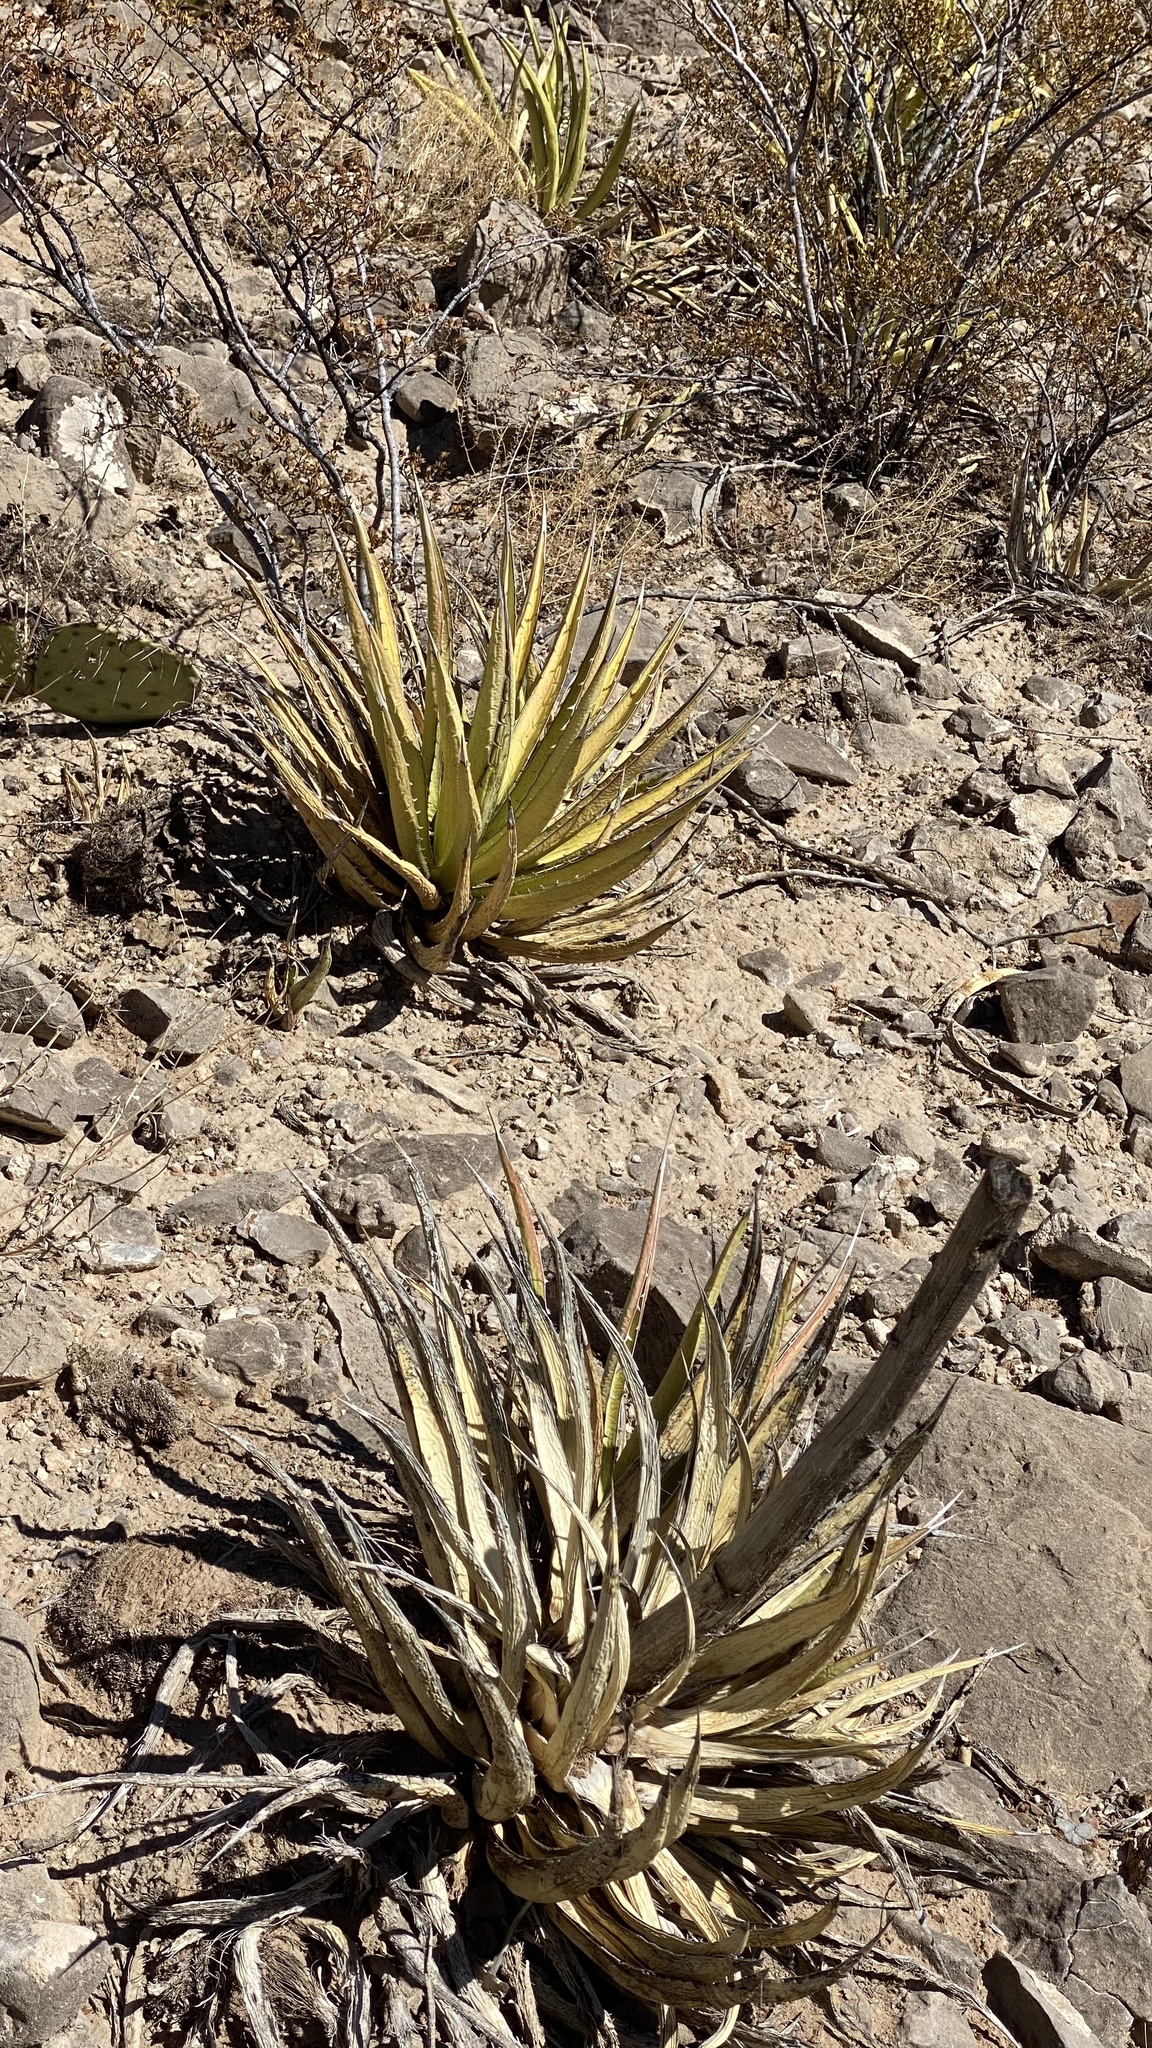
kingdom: Plantae
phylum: Tracheophyta
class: Liliopsida
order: Asparagales
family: Asparagaceae
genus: Agave
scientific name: Agave lechuguilla
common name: Lecheguilla agave
